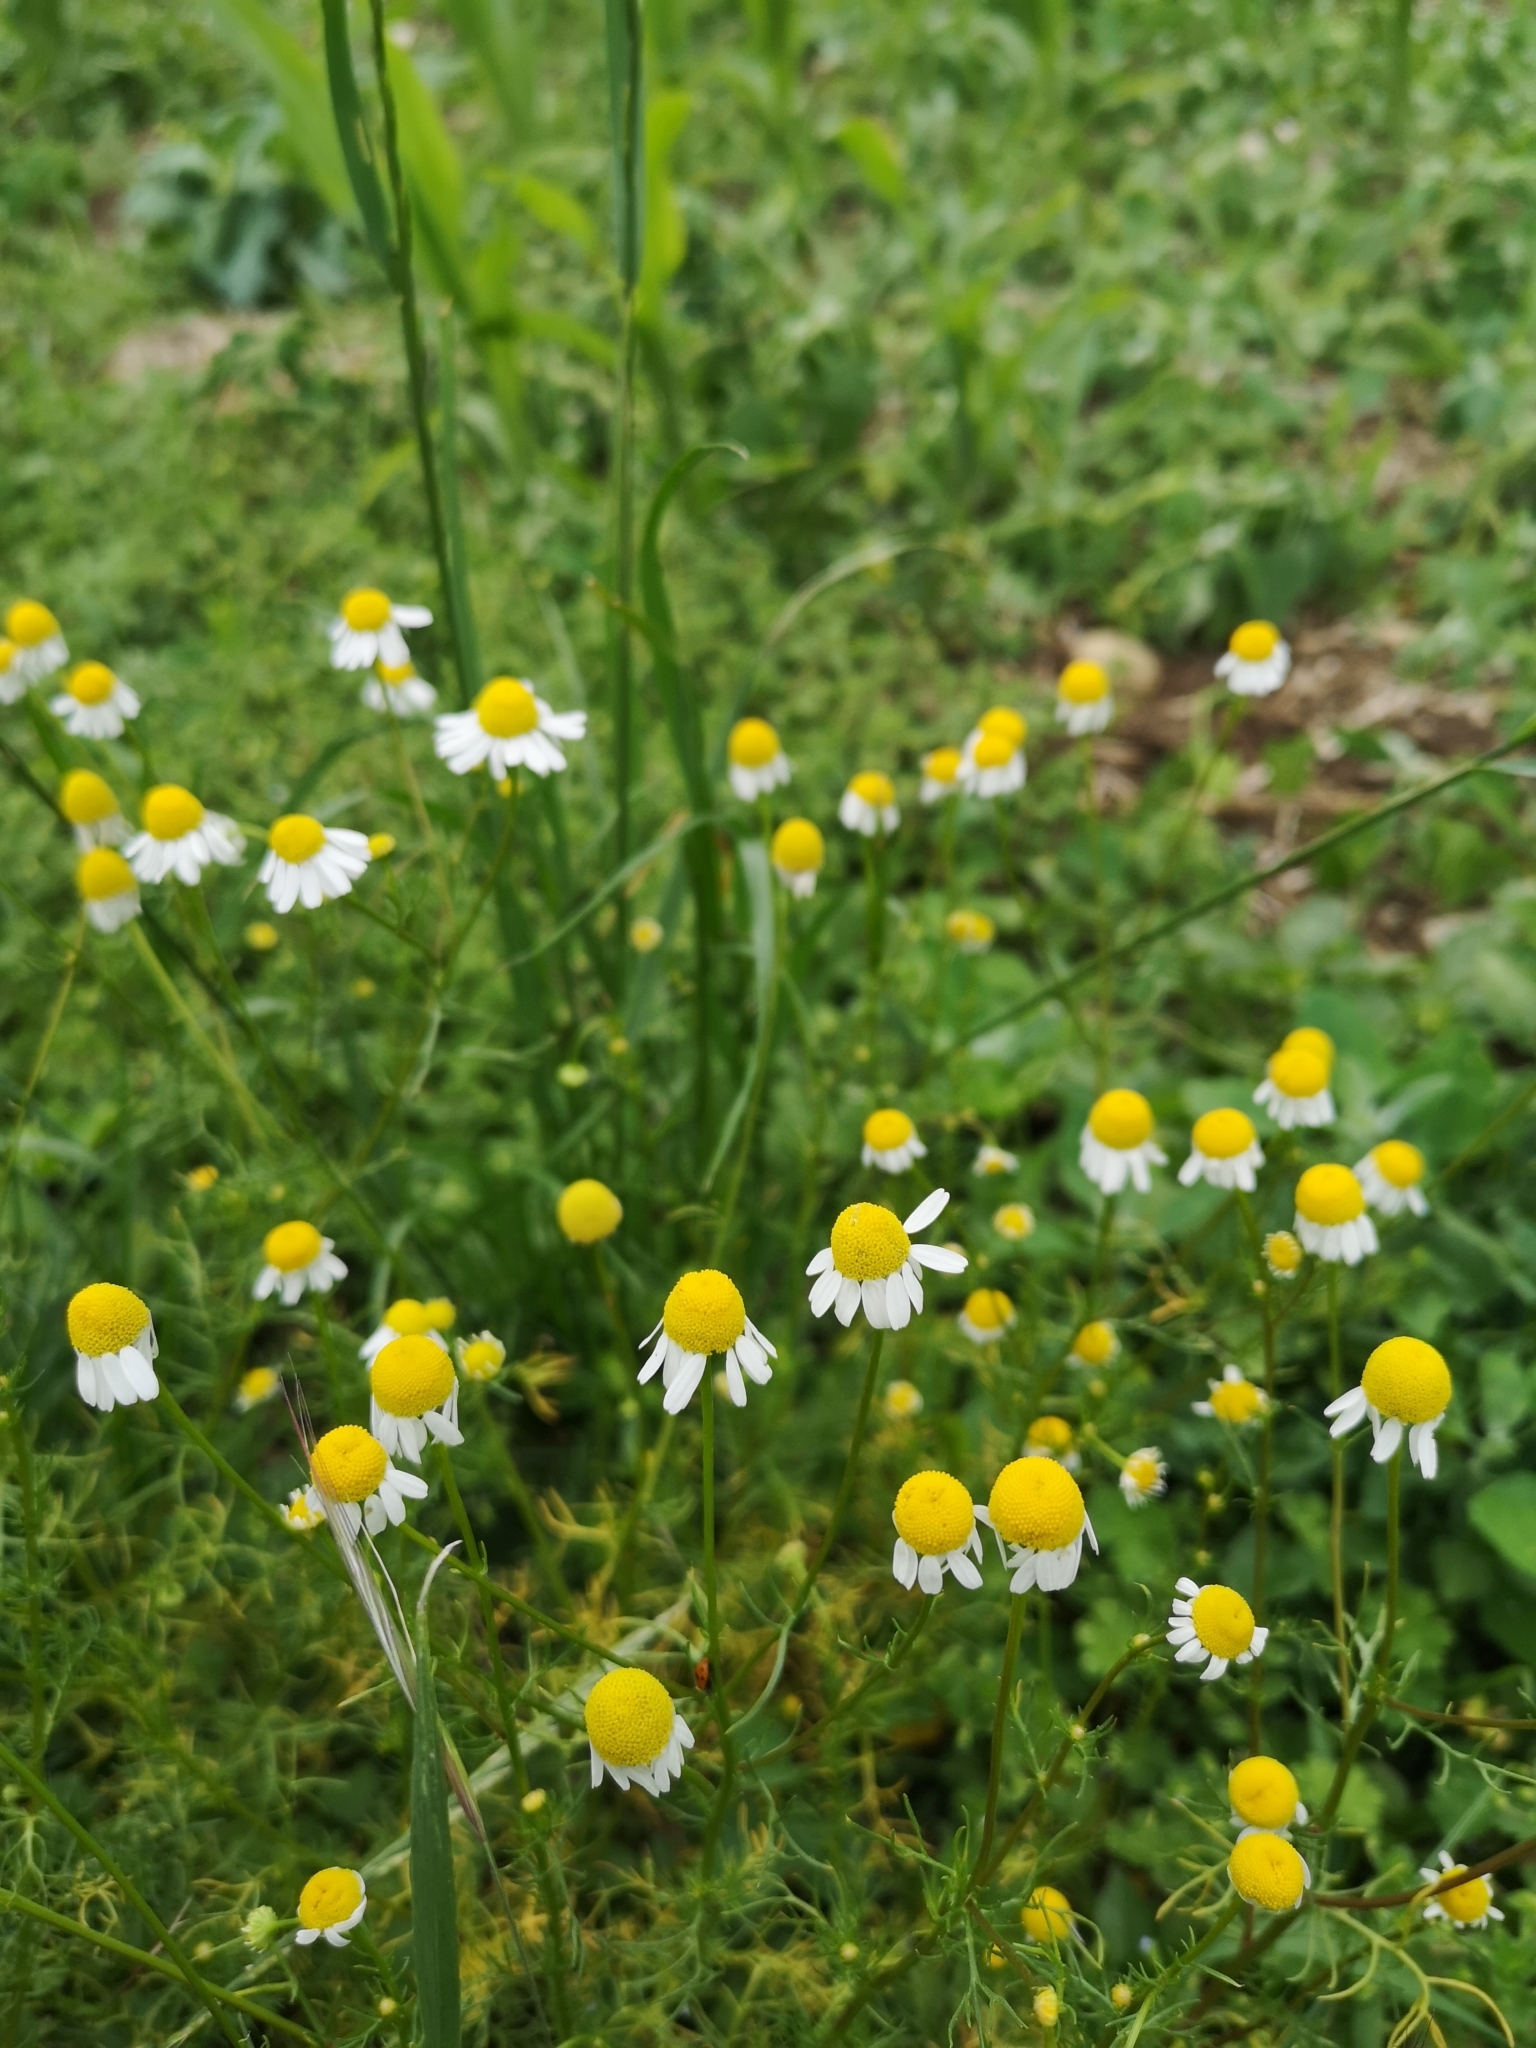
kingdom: Plantae
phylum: Tracheophyta
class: Magnoliopsida
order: Asterales
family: Asteraceae
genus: Matricaria
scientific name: Matricaria chamomilla
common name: Scented mayweed
